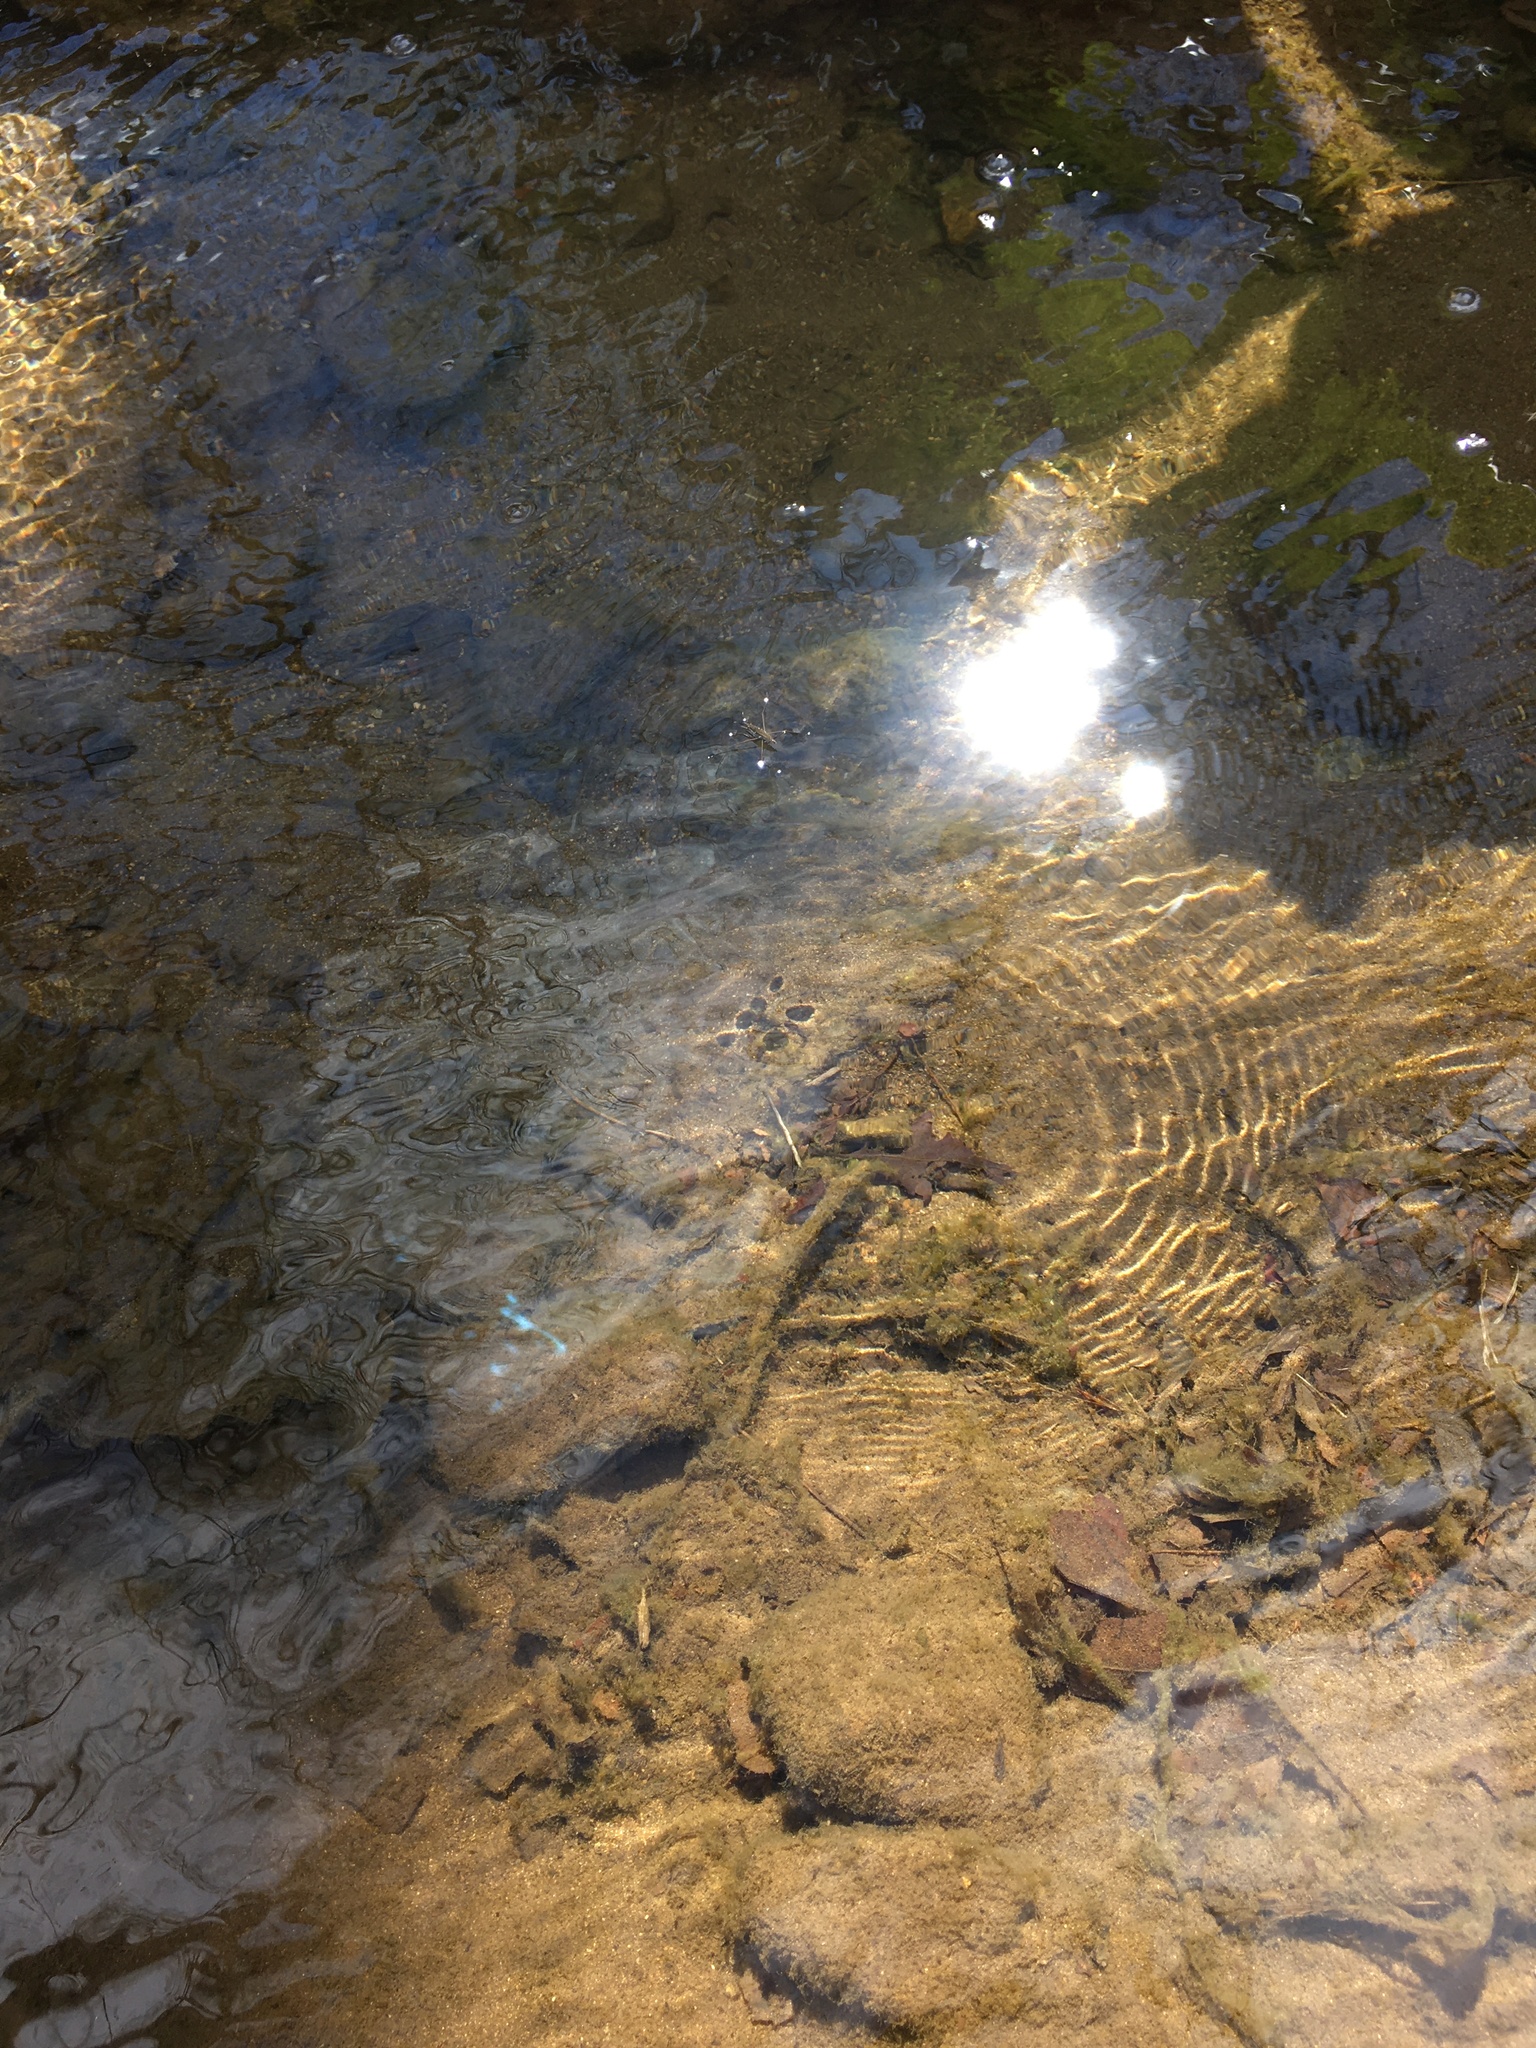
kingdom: Animalia
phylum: Arthropoda
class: Insecta
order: Hemiptera
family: Gerridae
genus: Aquarius
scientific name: Aquarius remigis
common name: Common water strider
